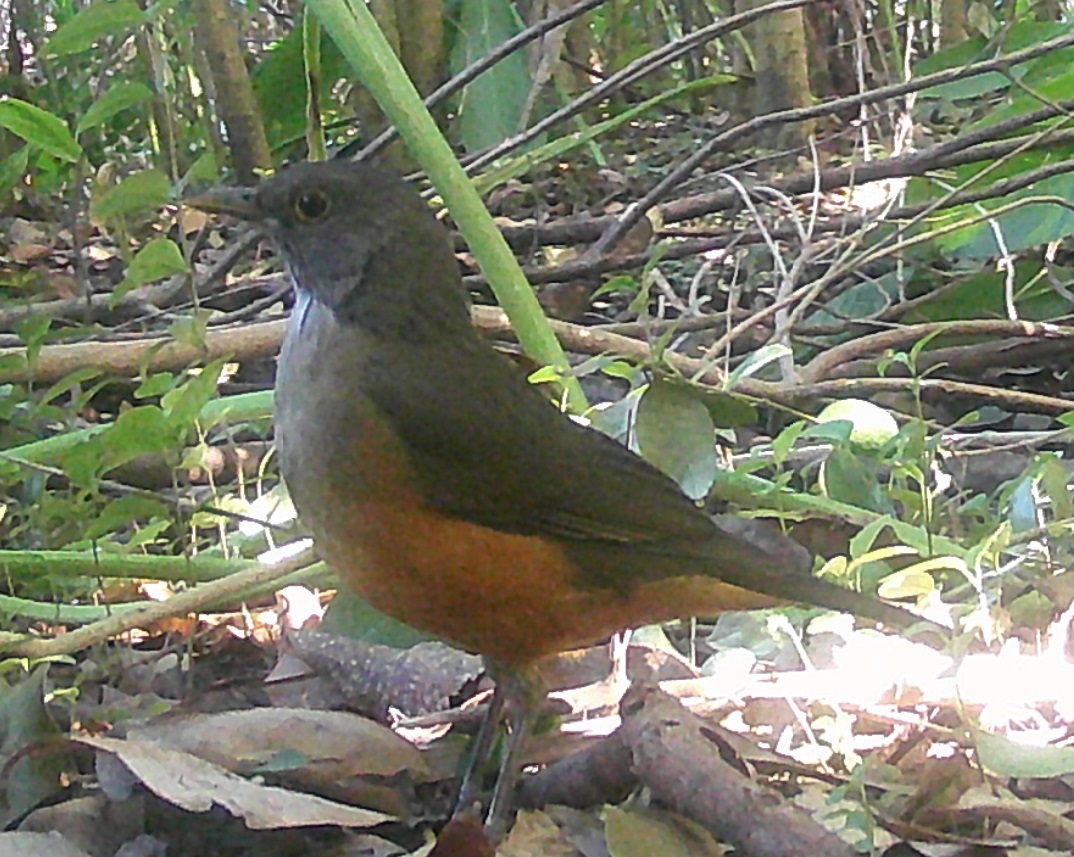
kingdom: Animalia
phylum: Chordata
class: Aves
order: Passeriformes
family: Turdidae
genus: Turdus
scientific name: Turdus rufiventris
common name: Rufous-bellied thrush
